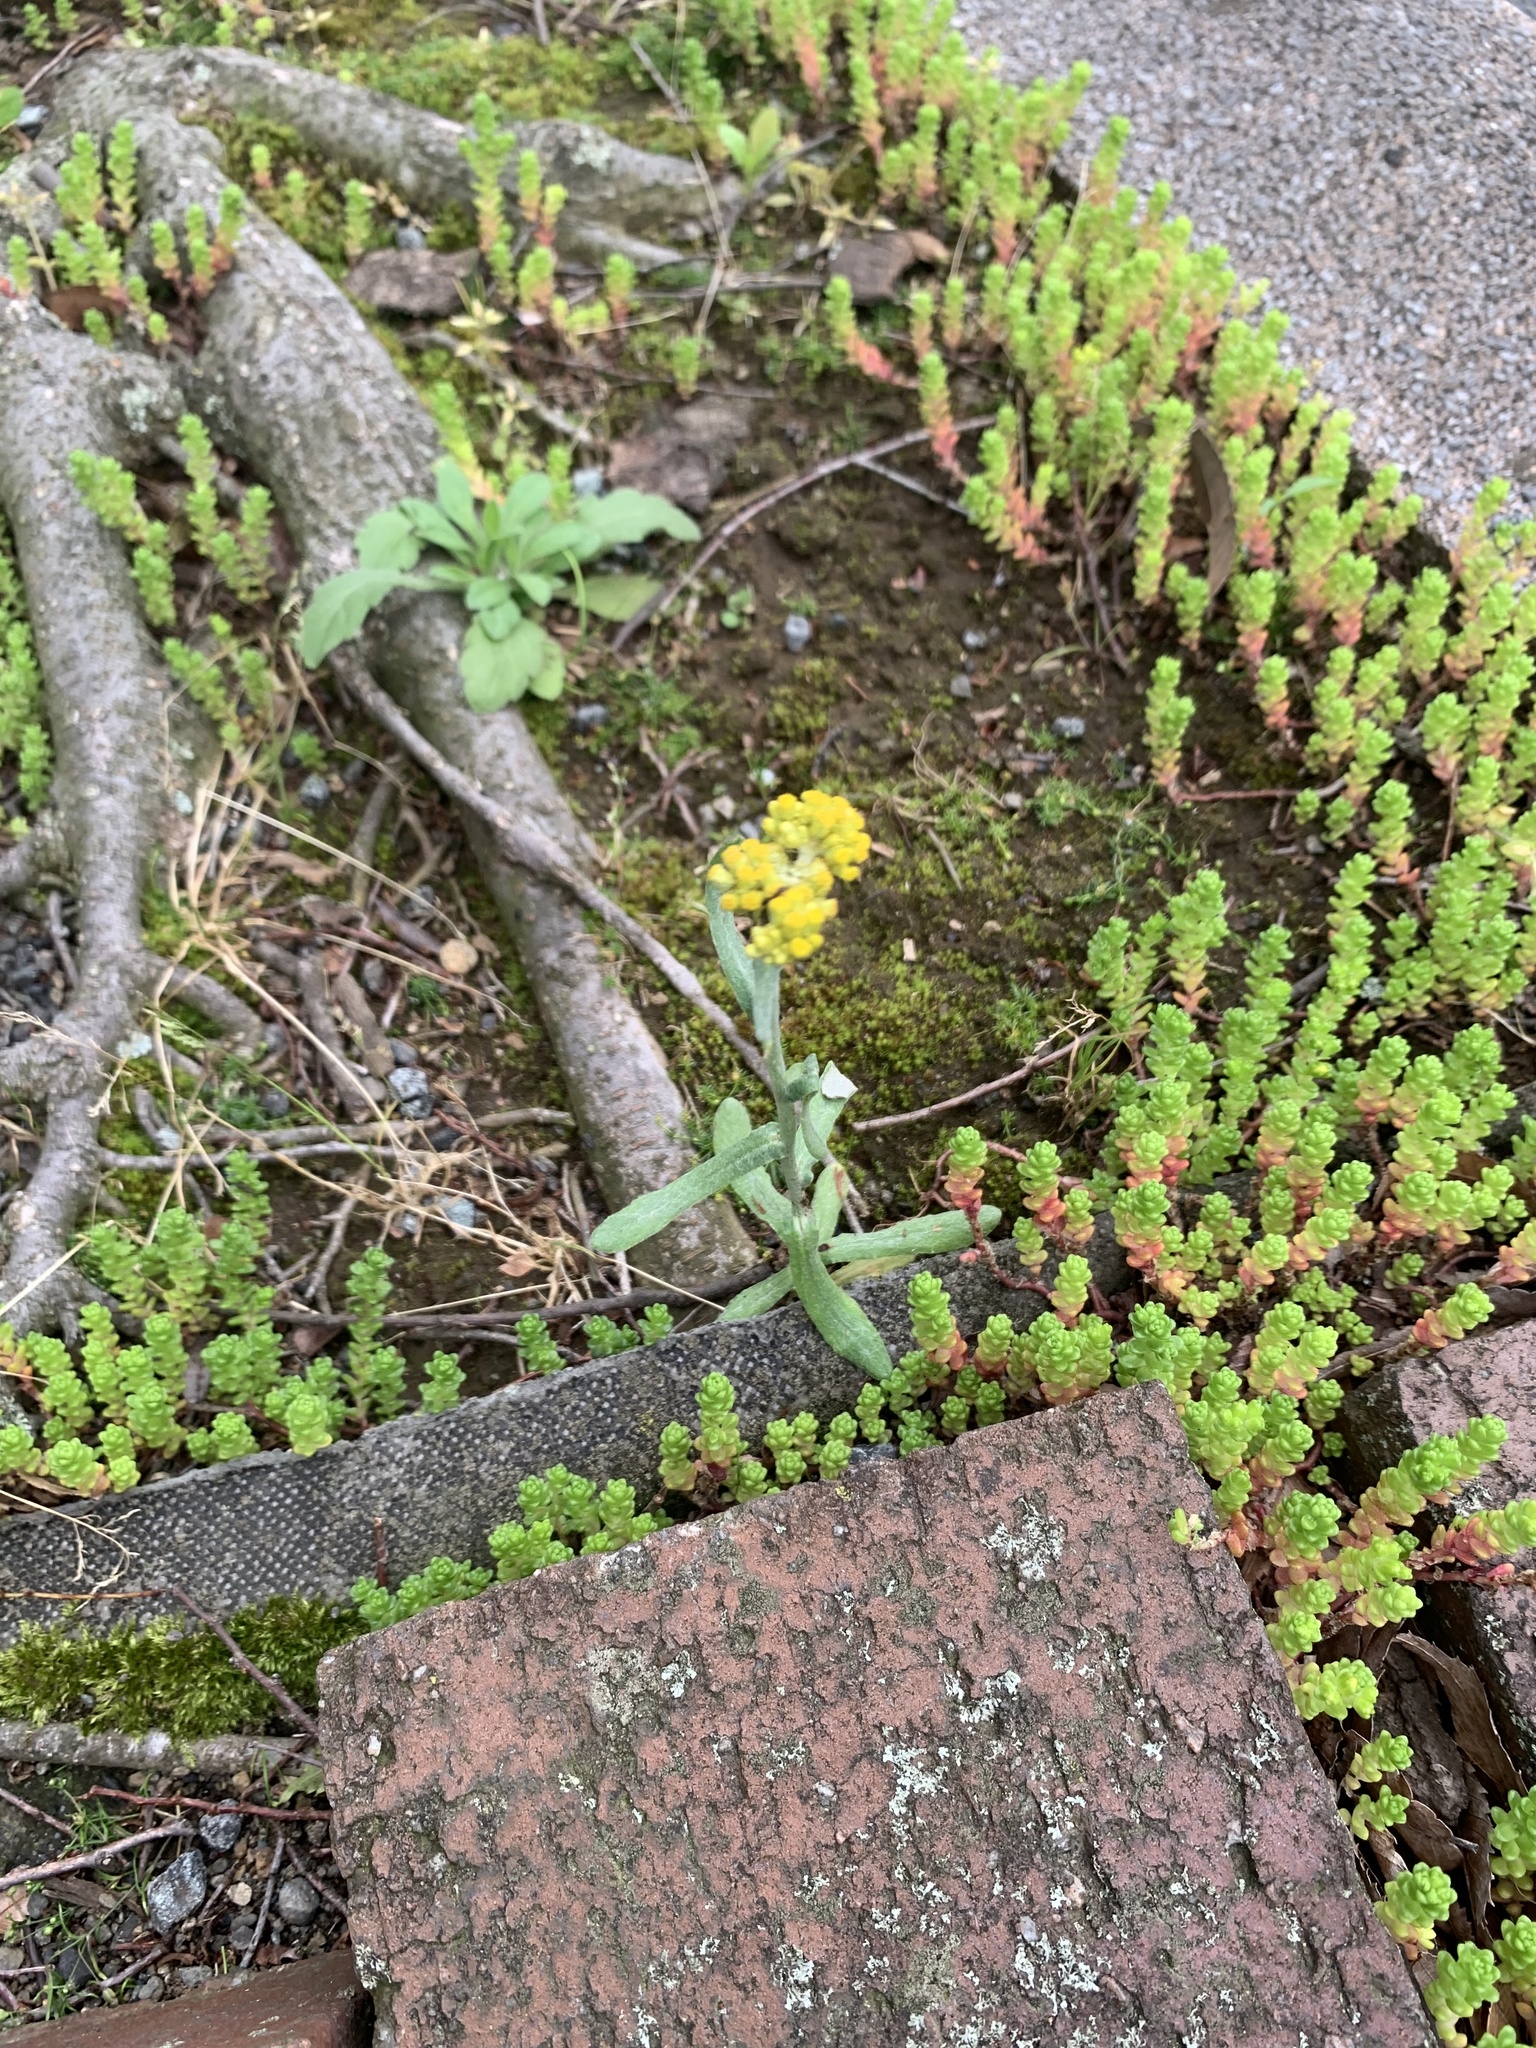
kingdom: Plantae
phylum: Tracheophyta
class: Magnoliopsida
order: Asterales
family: Asteraceae
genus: Pseudognaphalium
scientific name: Pseudognaphalium affine
